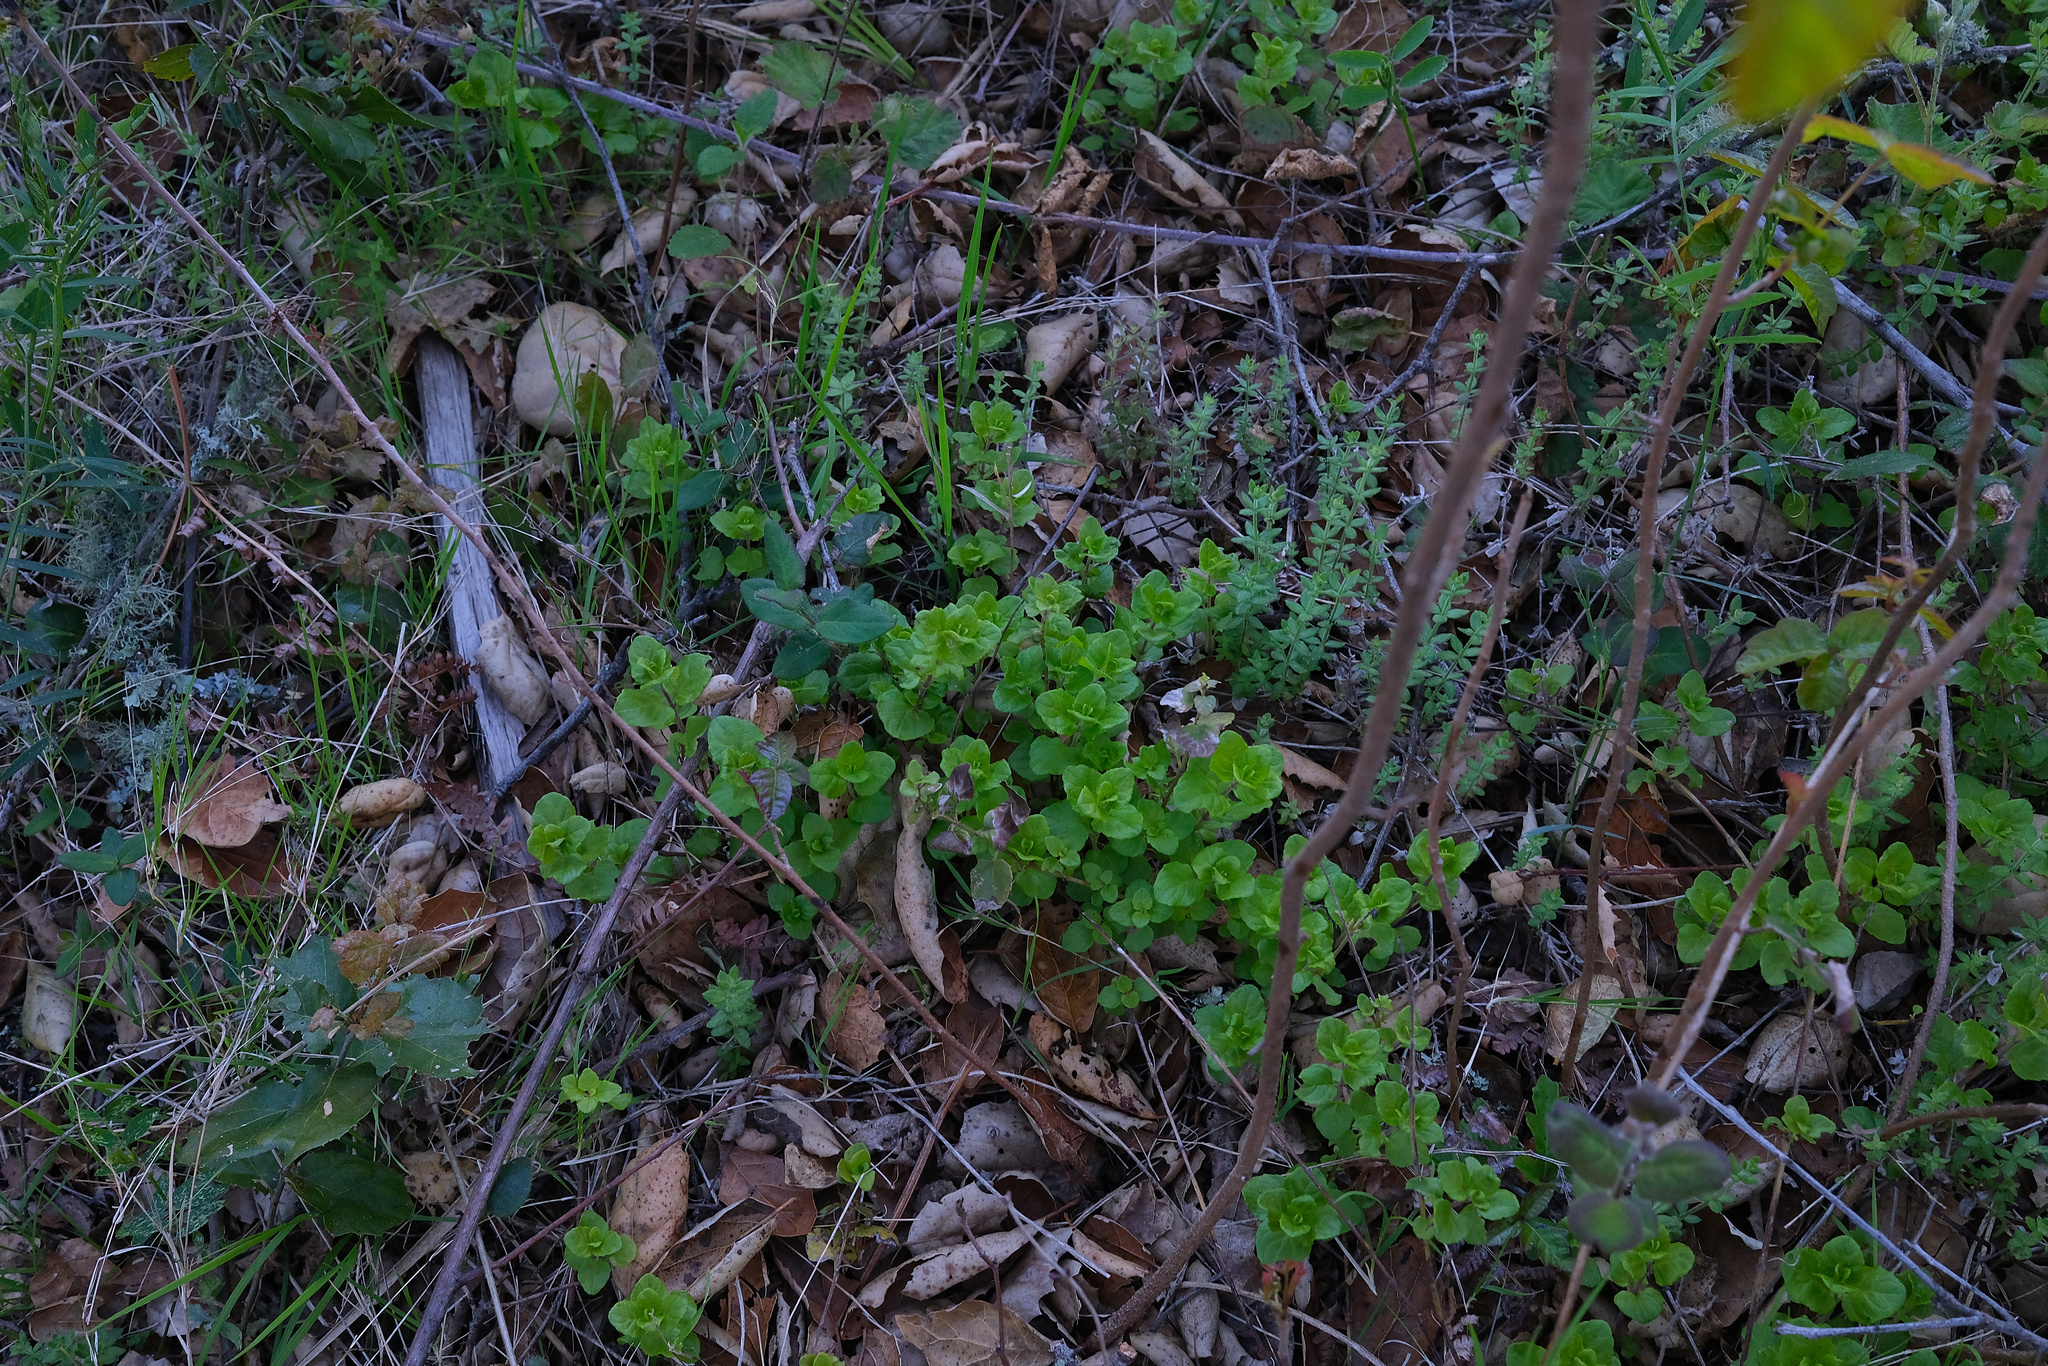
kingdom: Plantae
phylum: Tracheophyta
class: Magnoliopsida
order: Lamiales
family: Lamiaceae
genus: Micromeria
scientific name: Micromeria douglasii
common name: Yerba buena
